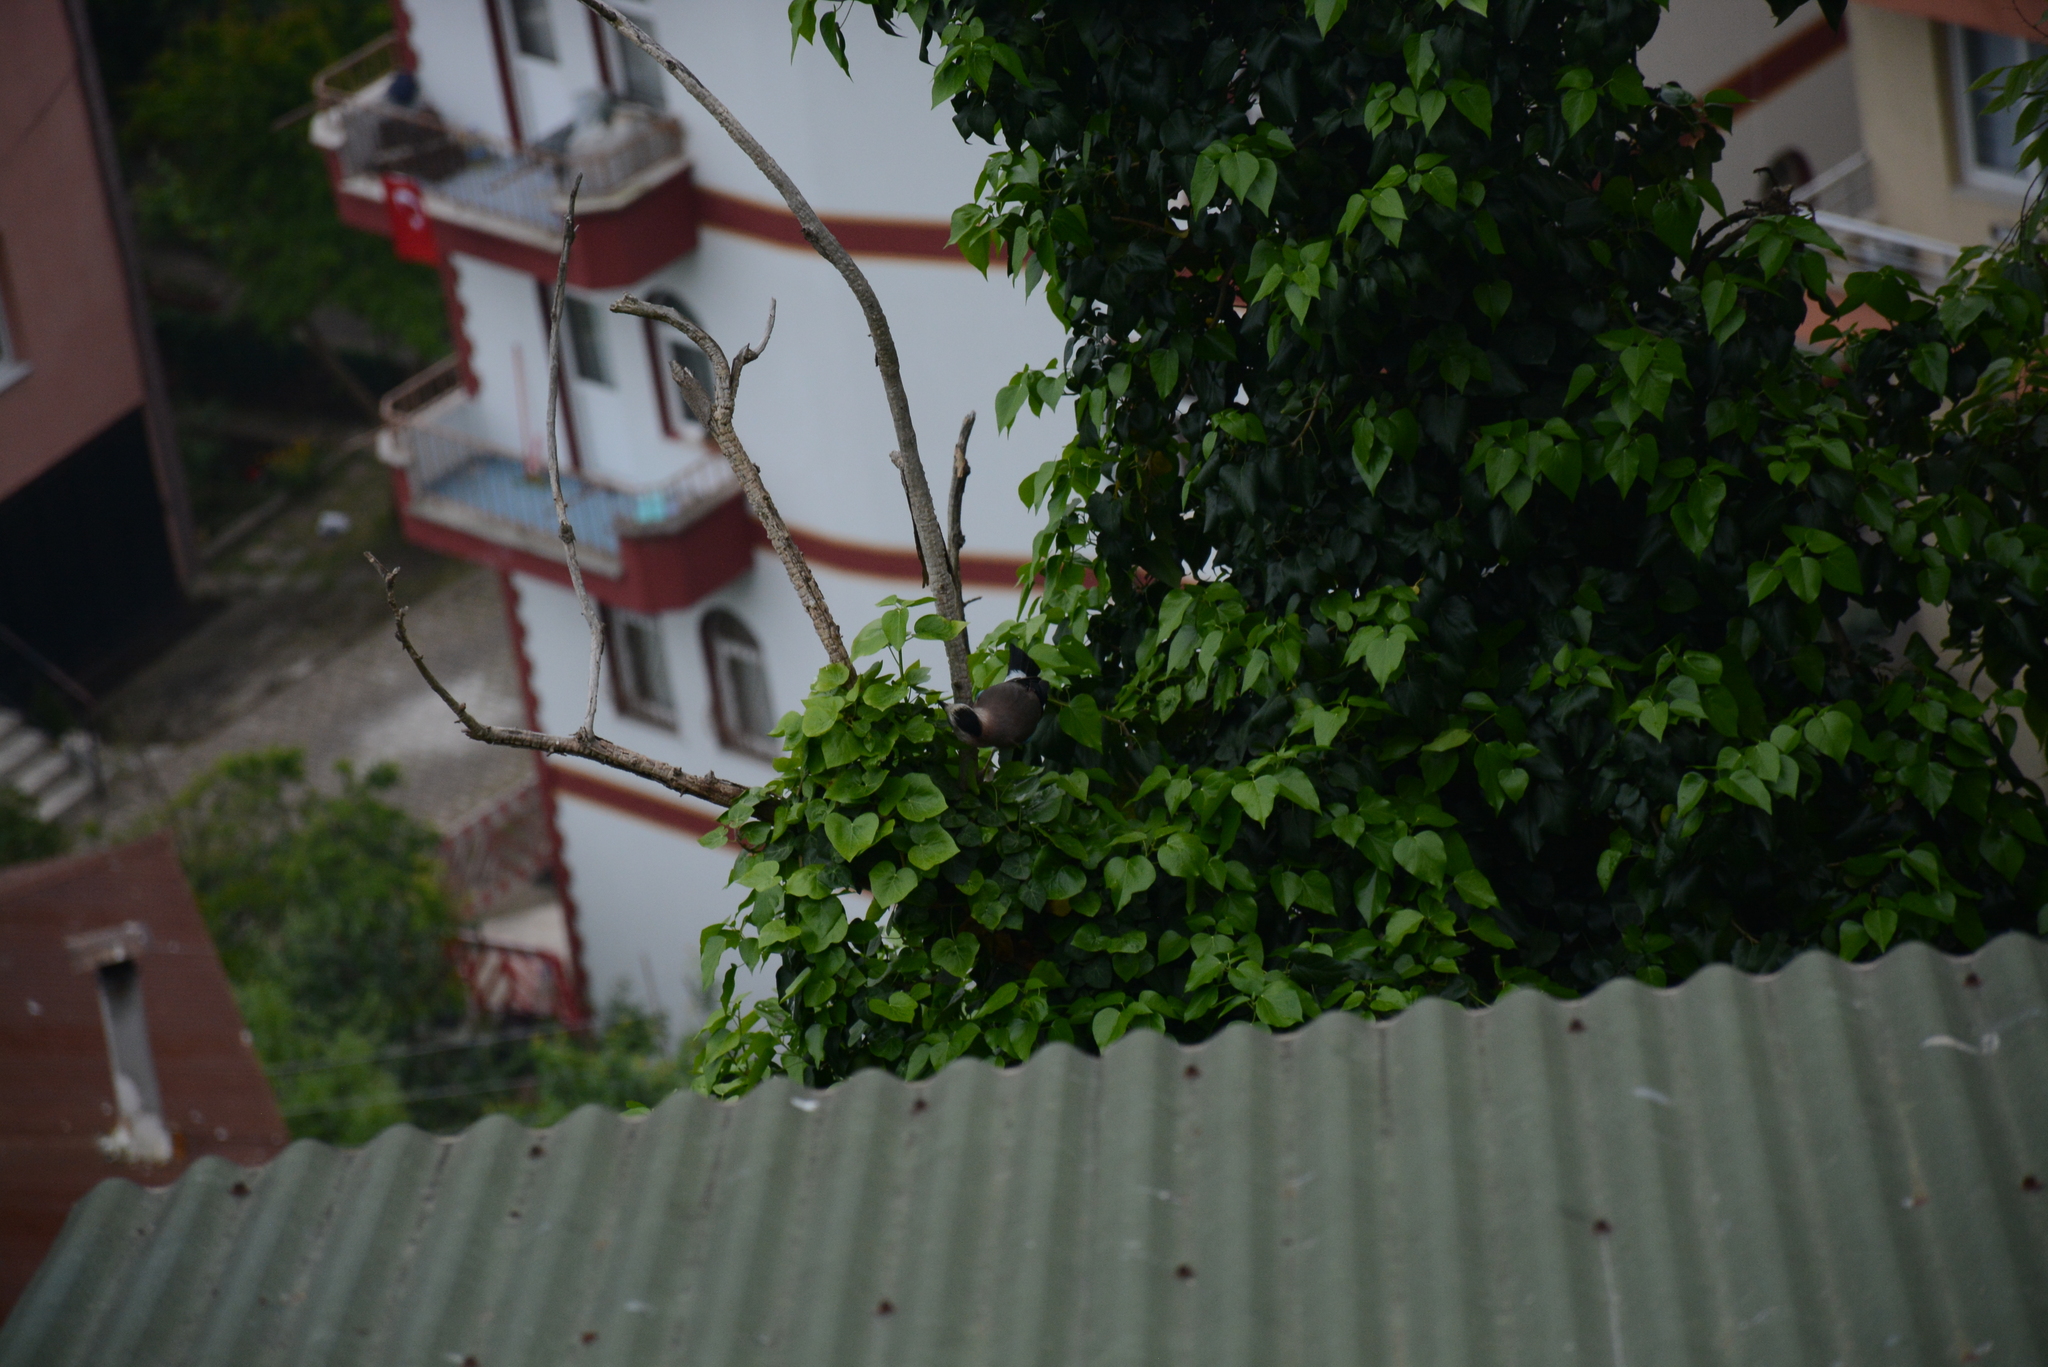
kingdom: Animalia
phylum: Chordata
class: Aves
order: Passeriformes
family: Corvidae
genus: Garrulus
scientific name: Garrulus glandarius
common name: Eurasian jay
